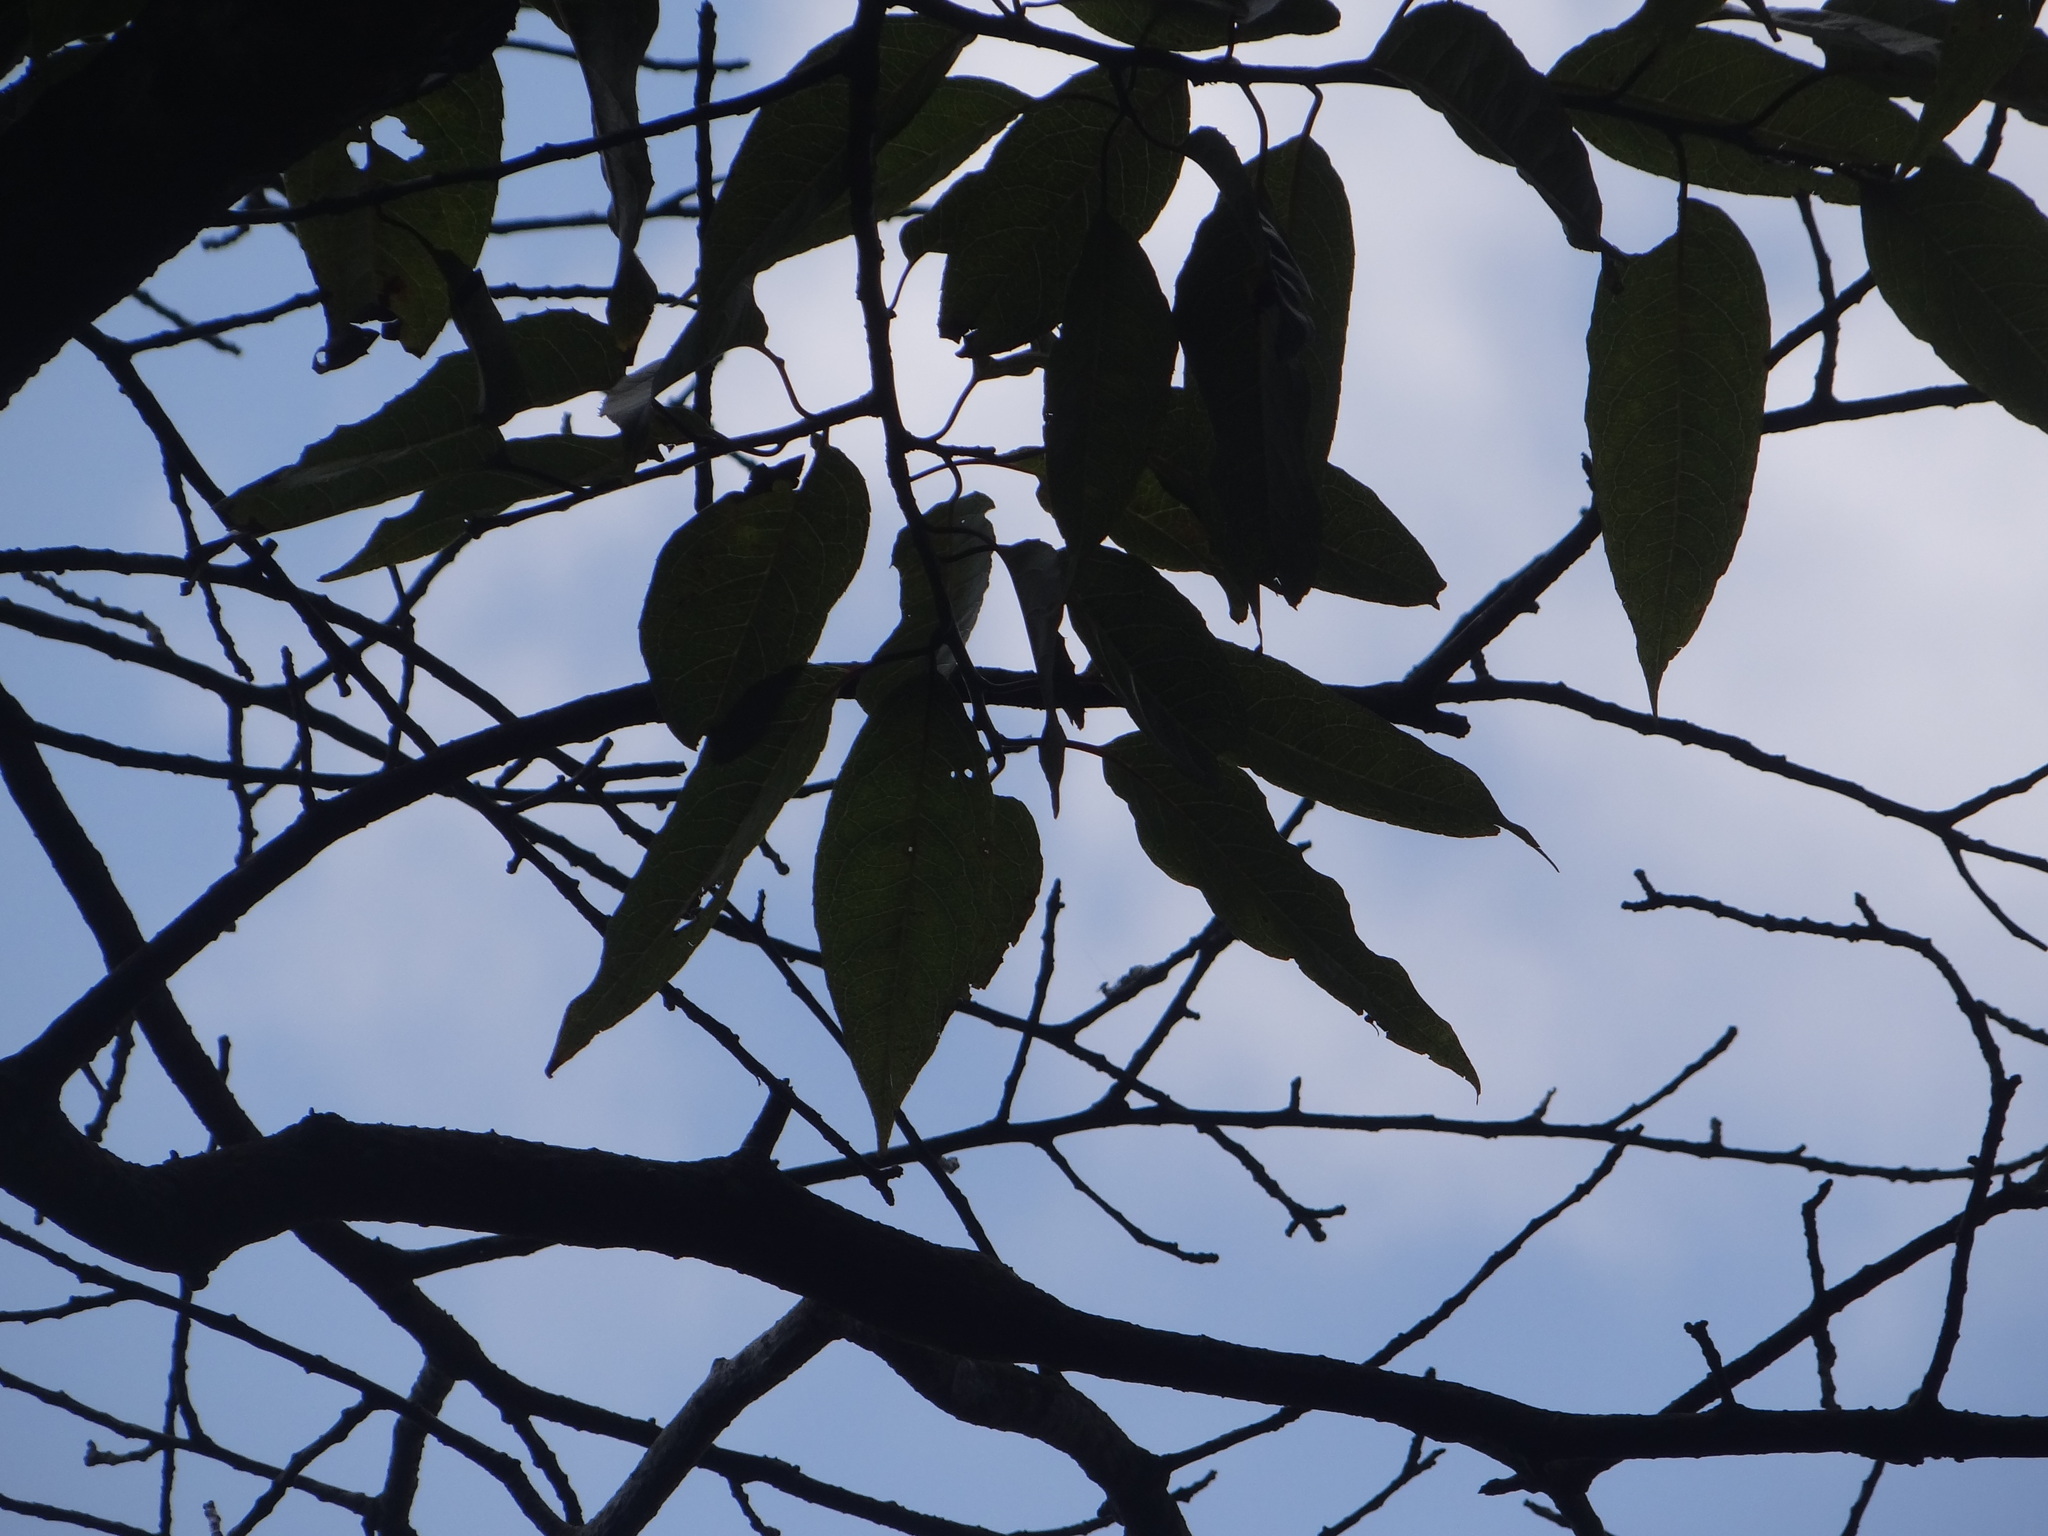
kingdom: Plantae
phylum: Tracheophyta
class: Magnoliopsida
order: Ericales
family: Styracaceae
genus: Alniphyllum
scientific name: Alniphyllum pterospermum
